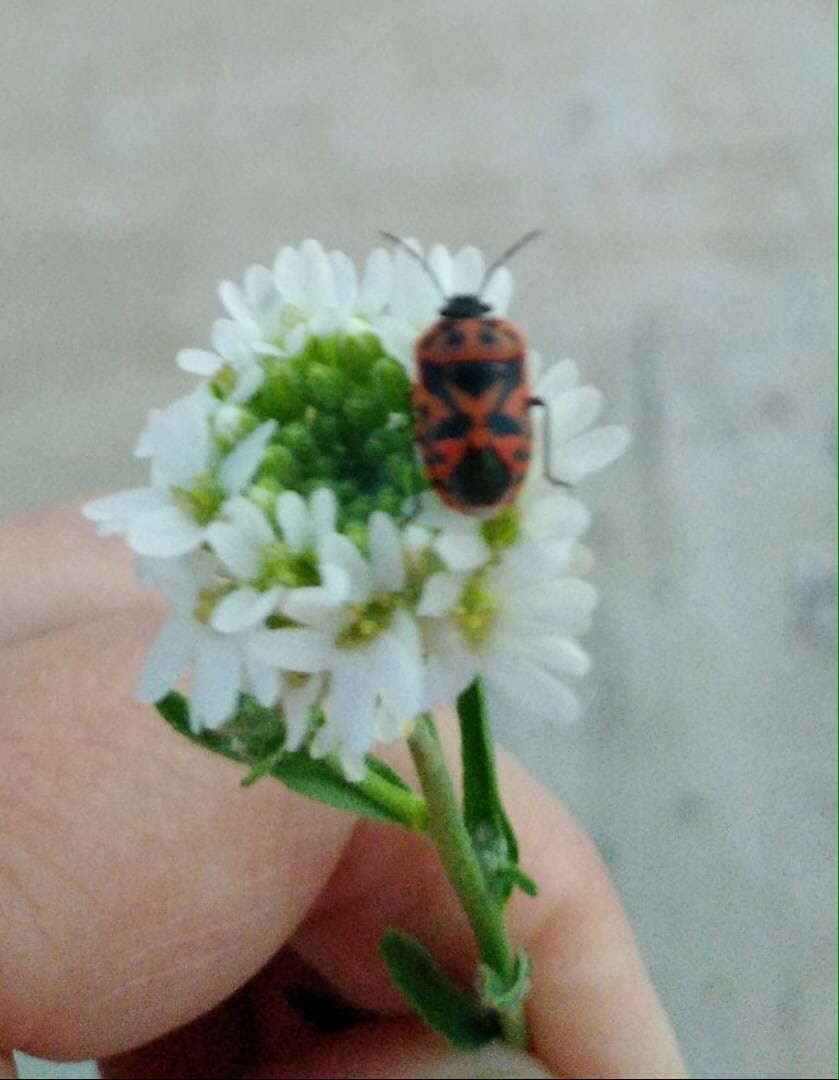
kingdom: Animalia
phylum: Arthropoda
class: Insecta
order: Hemiptera
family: Pentatomidae
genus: Eurydema
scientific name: Eurydema ornata
